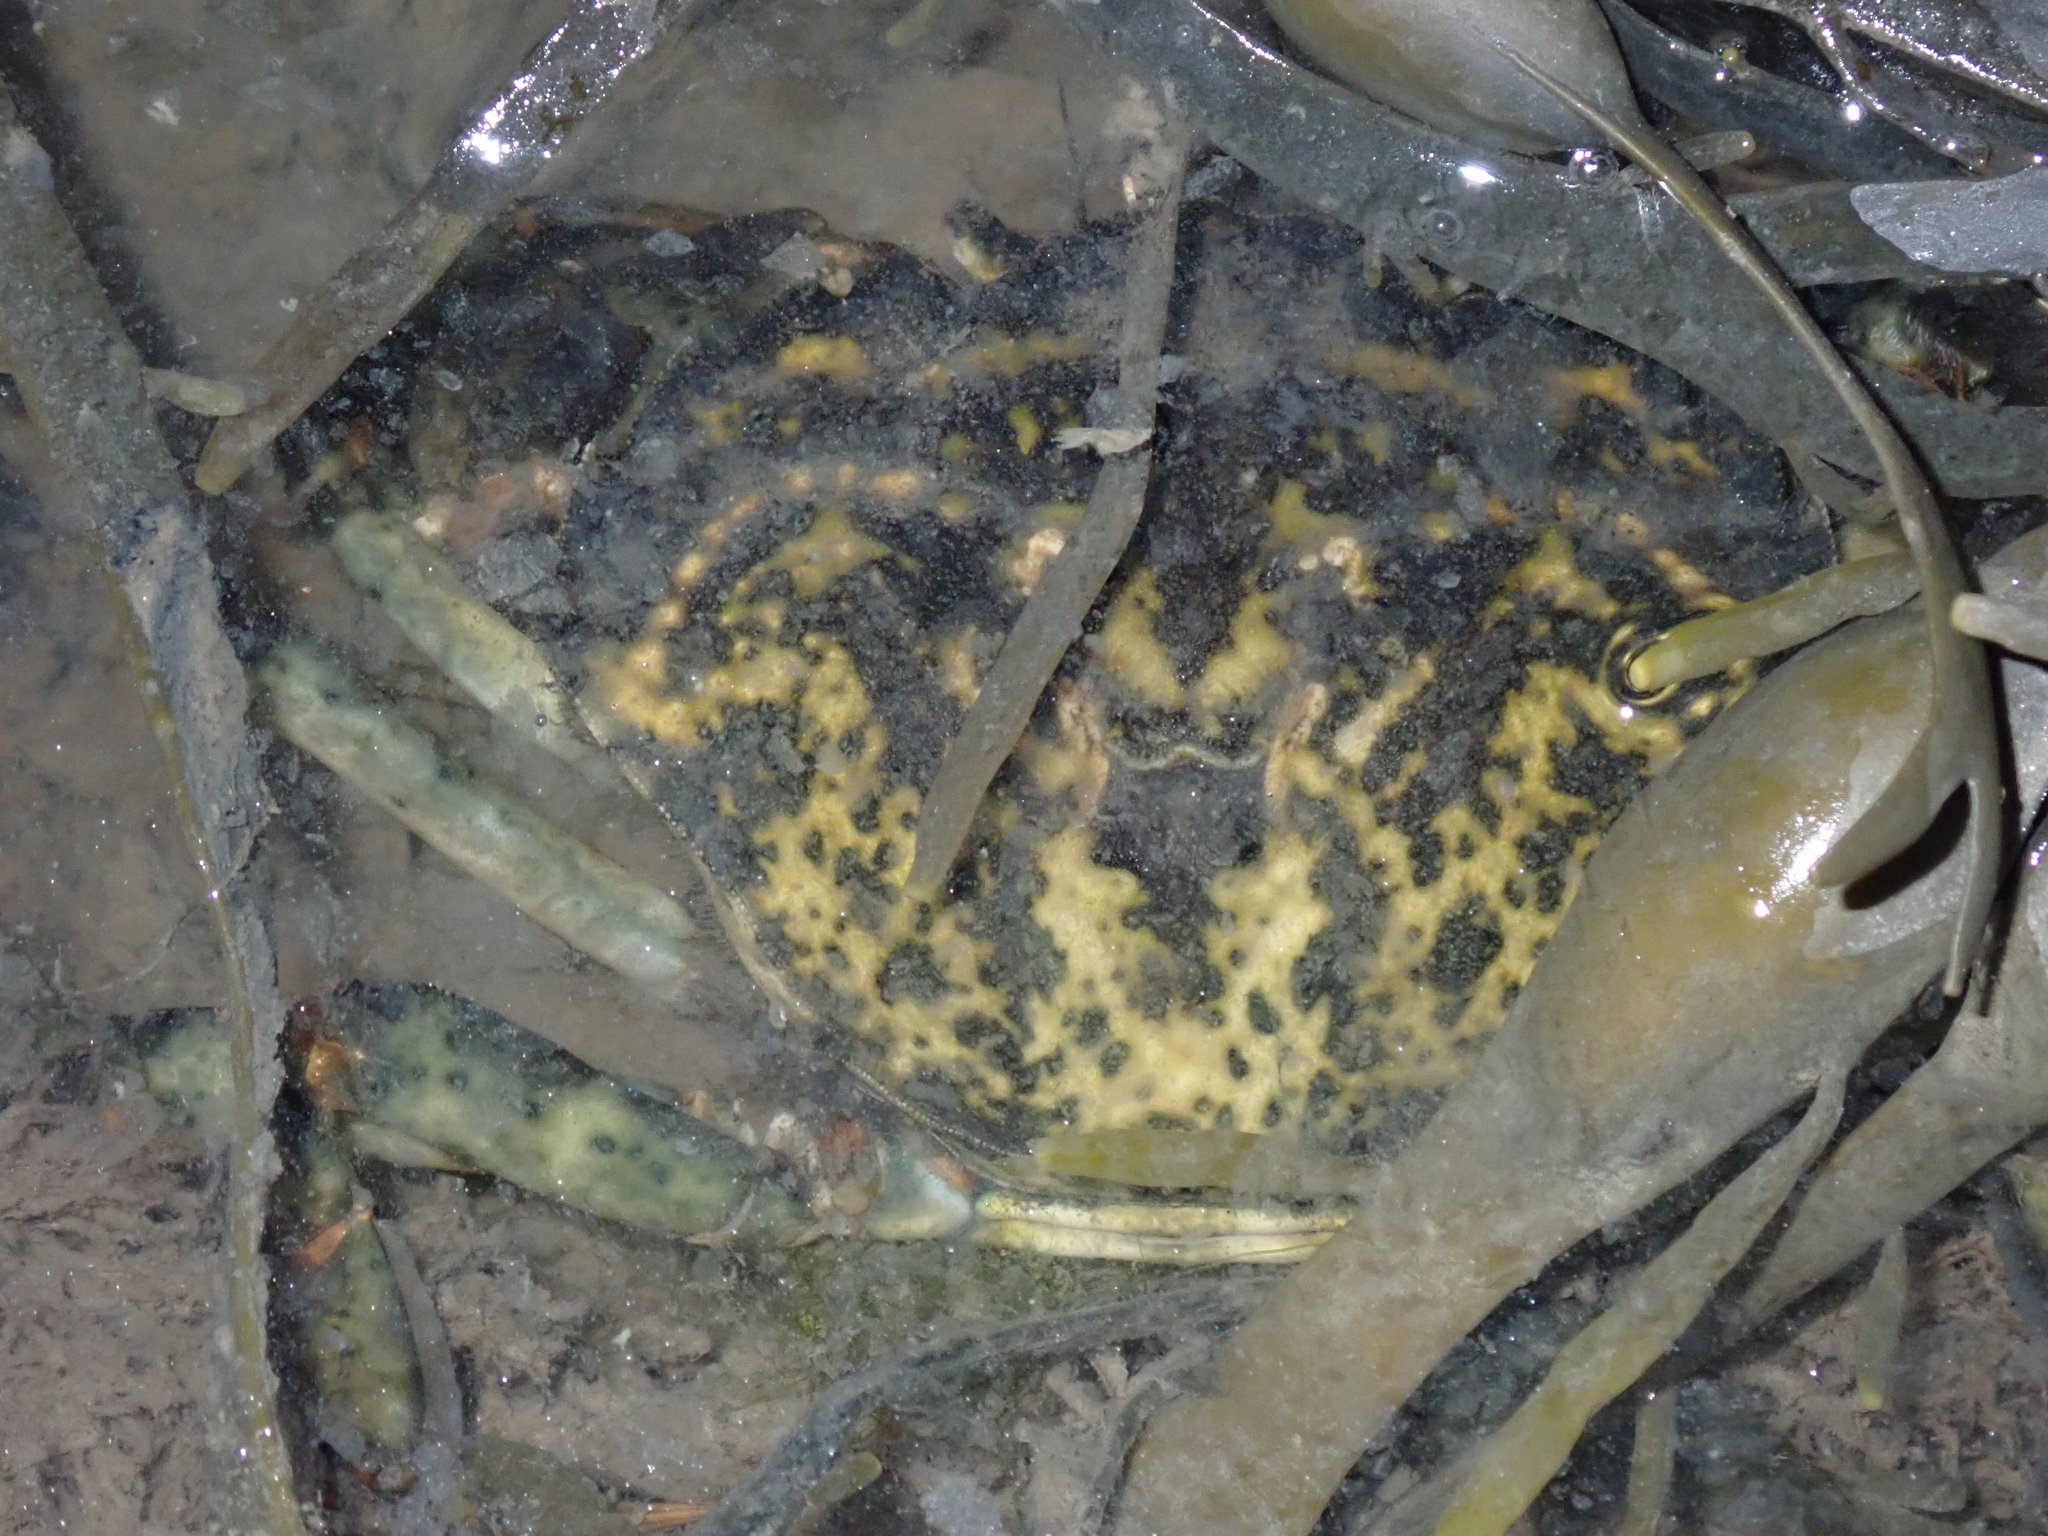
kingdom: Animalia
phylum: Arthropoda
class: Malacostraca
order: Decapoda
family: Carcinidae
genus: Carcinus
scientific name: Carcinus maenas
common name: European green crab
